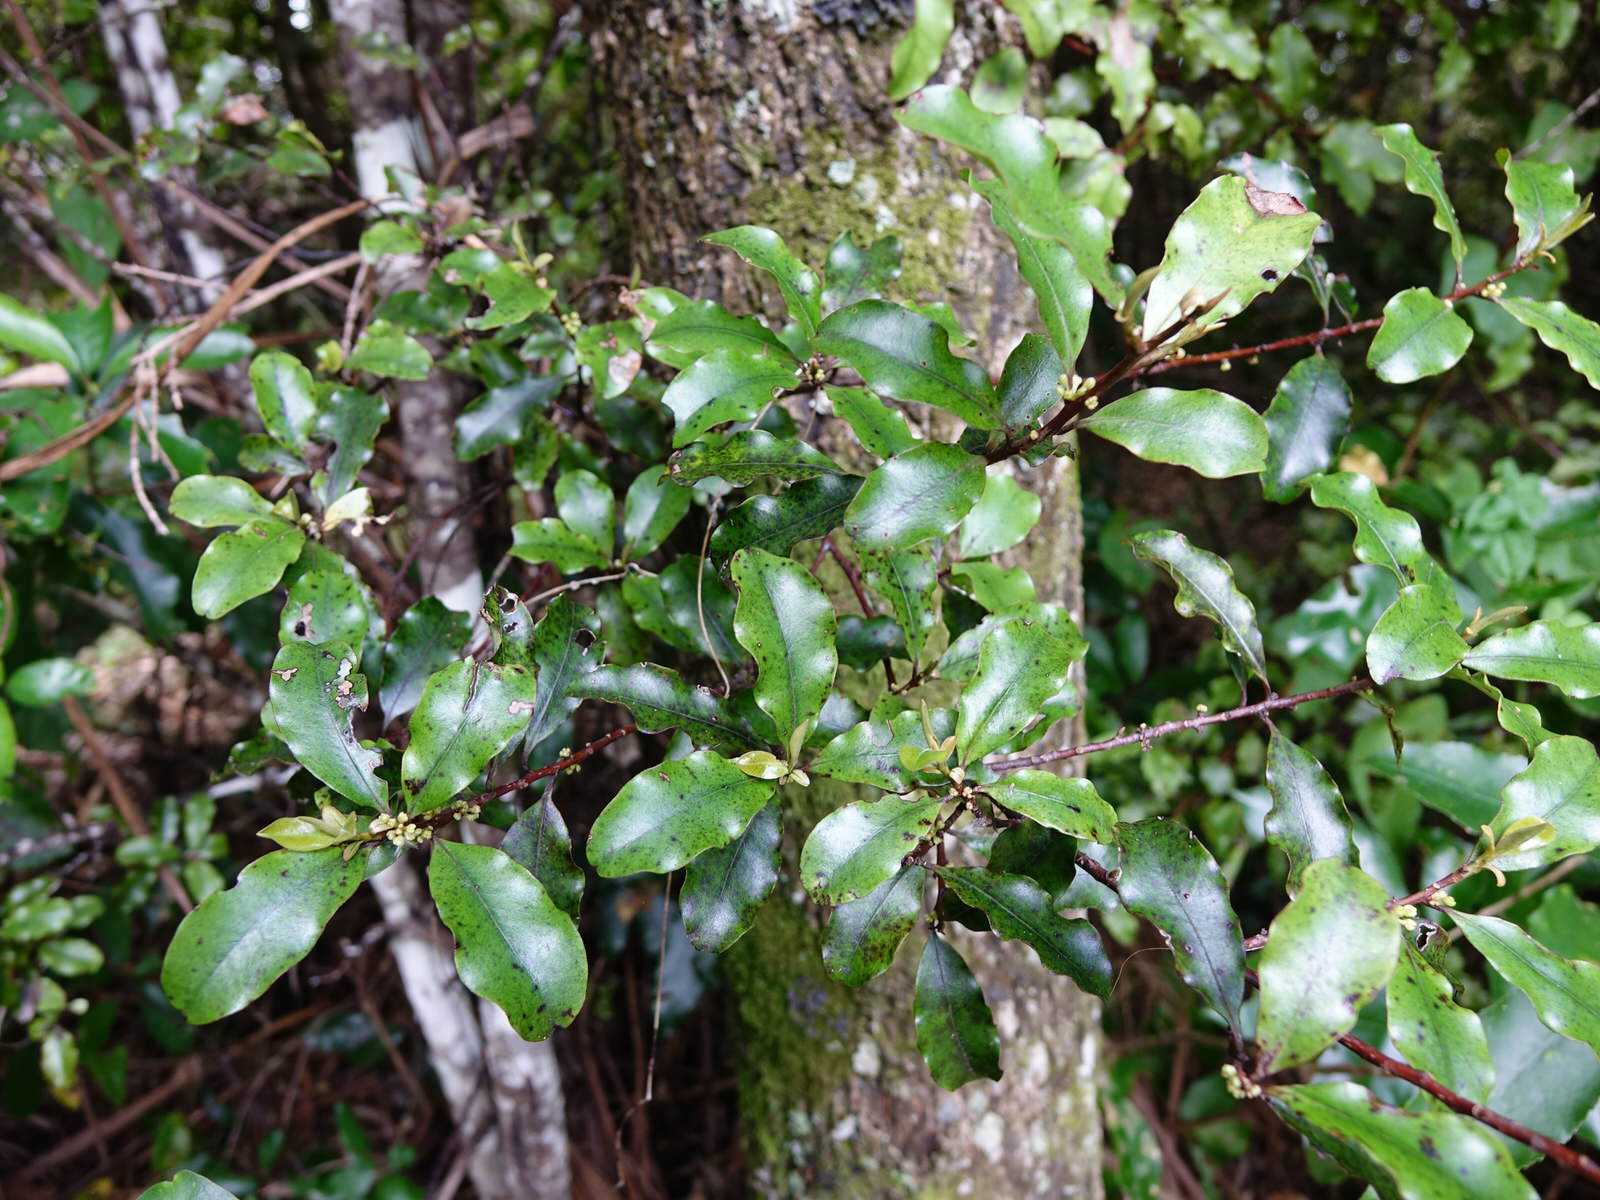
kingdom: Plantae
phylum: Tracheophyta
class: Magnoliopsida
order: Ericales
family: Primulaceae
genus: Myrsine
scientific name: Myrsine australis
